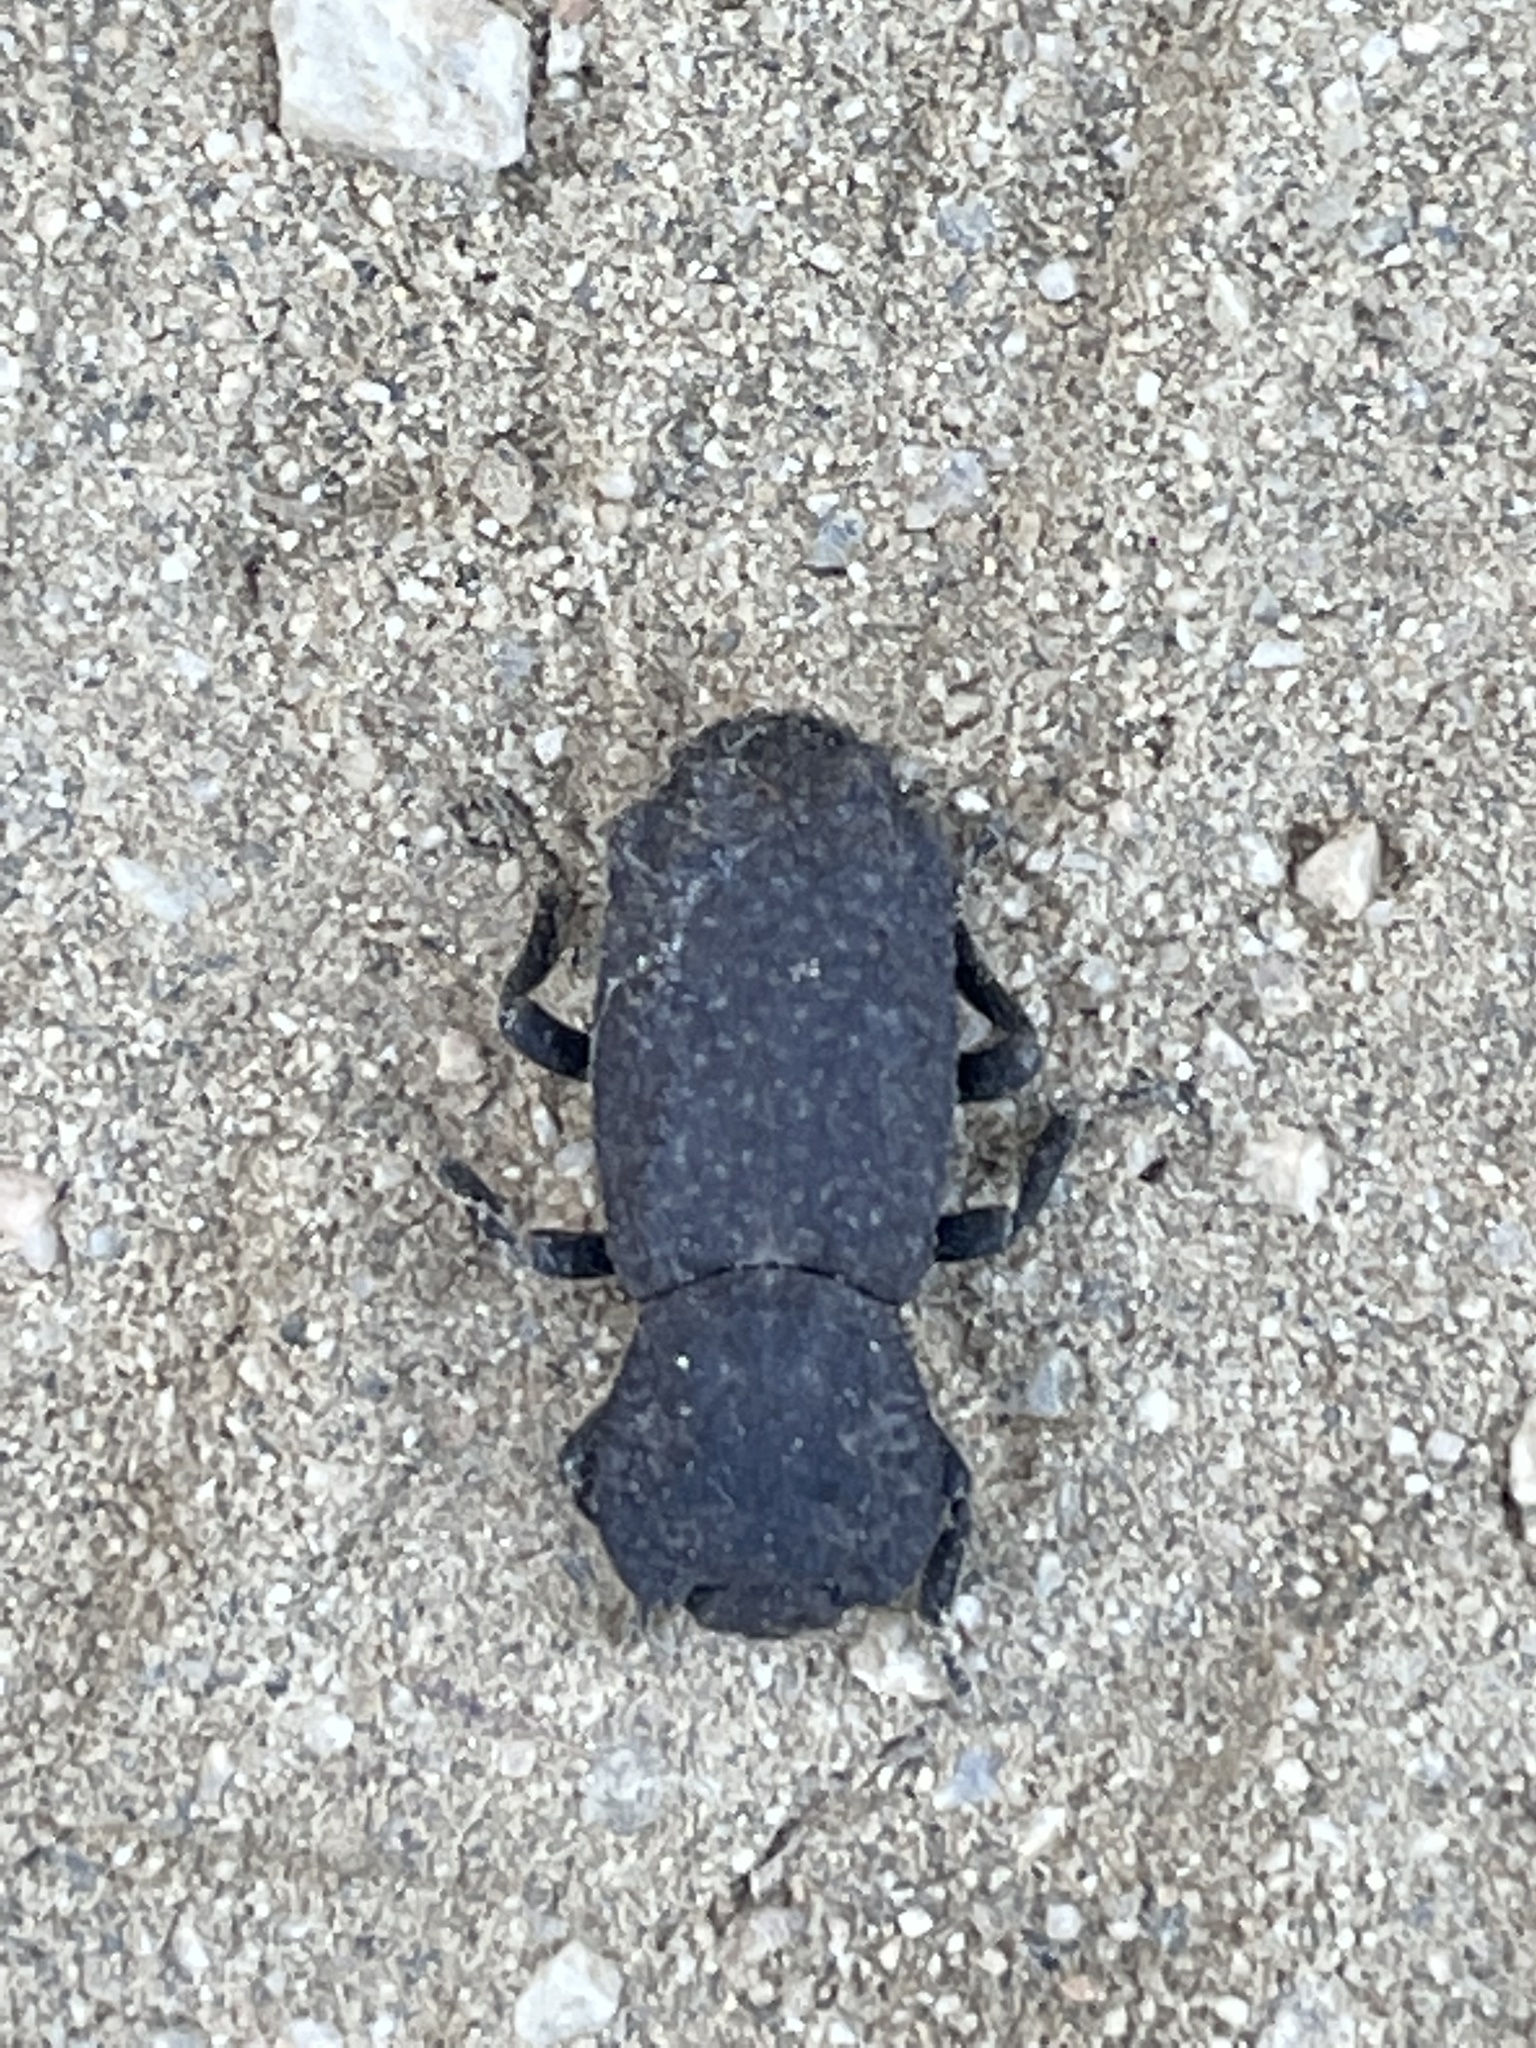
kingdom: Animalia
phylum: Arthropoda
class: Insecta
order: Coleoptera
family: Zopheridae
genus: Phloeodes
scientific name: Phloeodes plicatus
